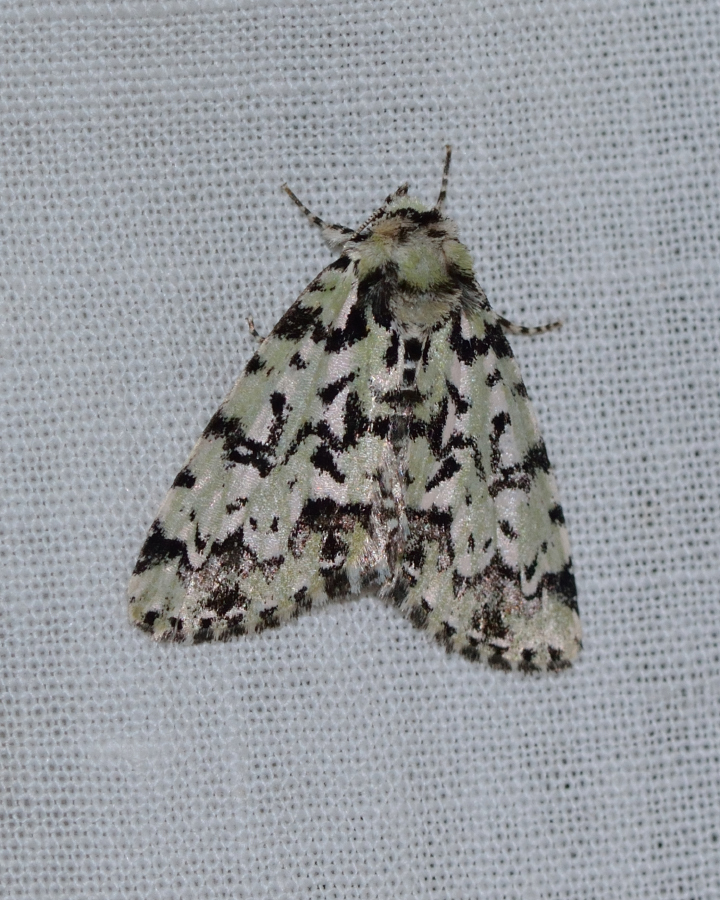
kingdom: Animalia
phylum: Arthropoda
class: Insecta
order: Lepidoptera
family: Noctuidae
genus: Moma
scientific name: Moma alpium
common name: Scarce merveille du jour
